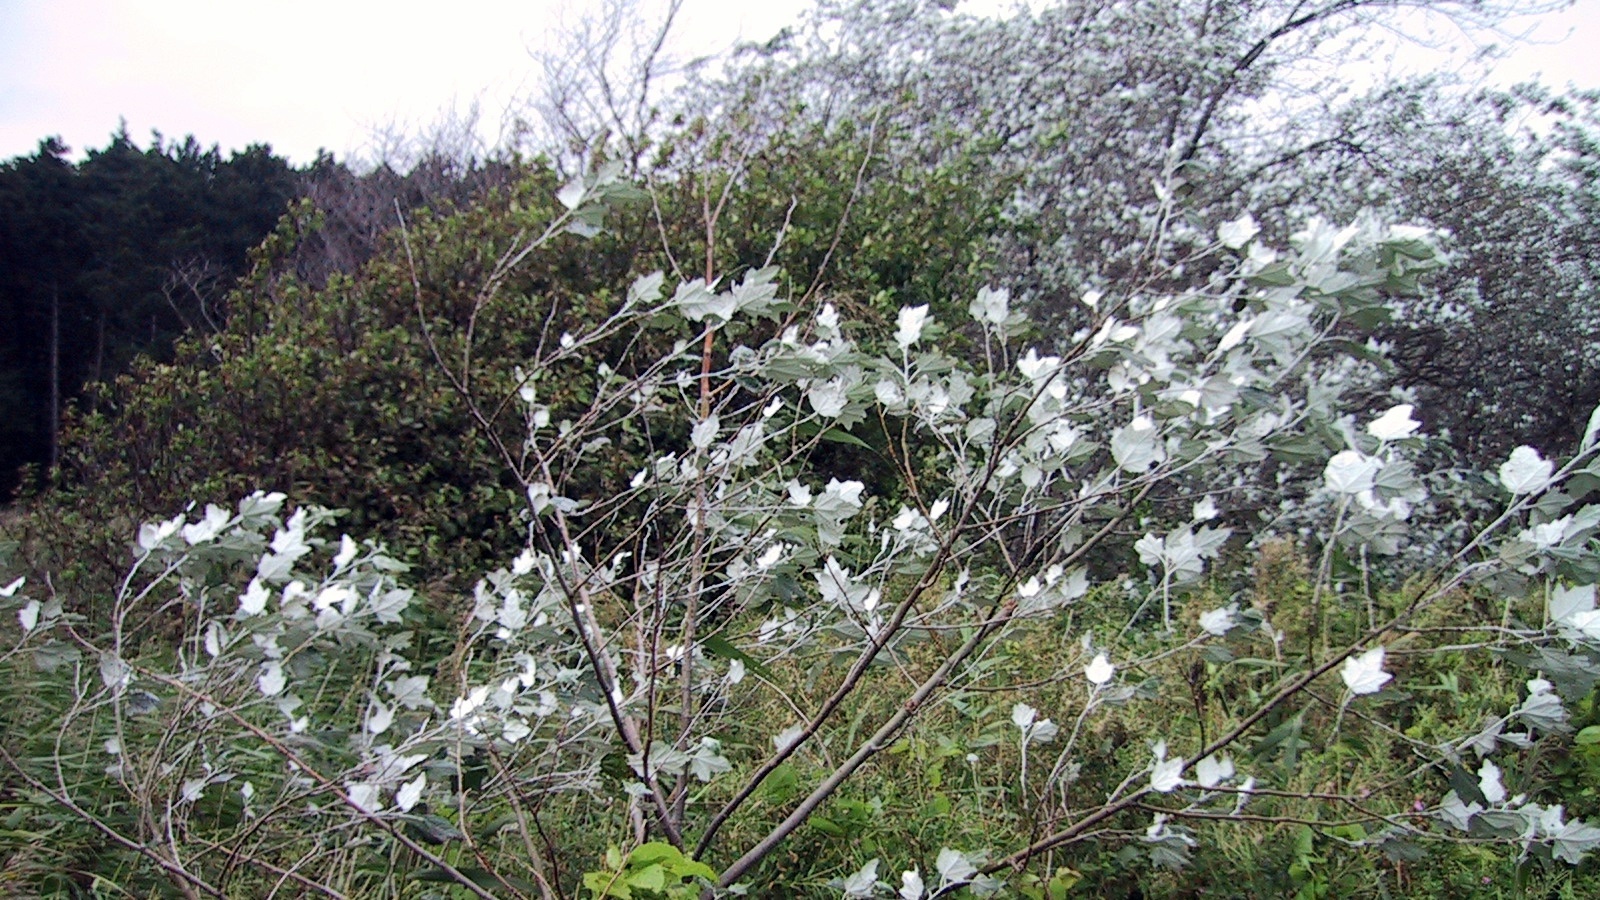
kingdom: Plantae
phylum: Tracheophyta
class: Magnoliopsida
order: Malpighiales
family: Salicaceae
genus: Populus
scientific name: Populus alba
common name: White poplar
